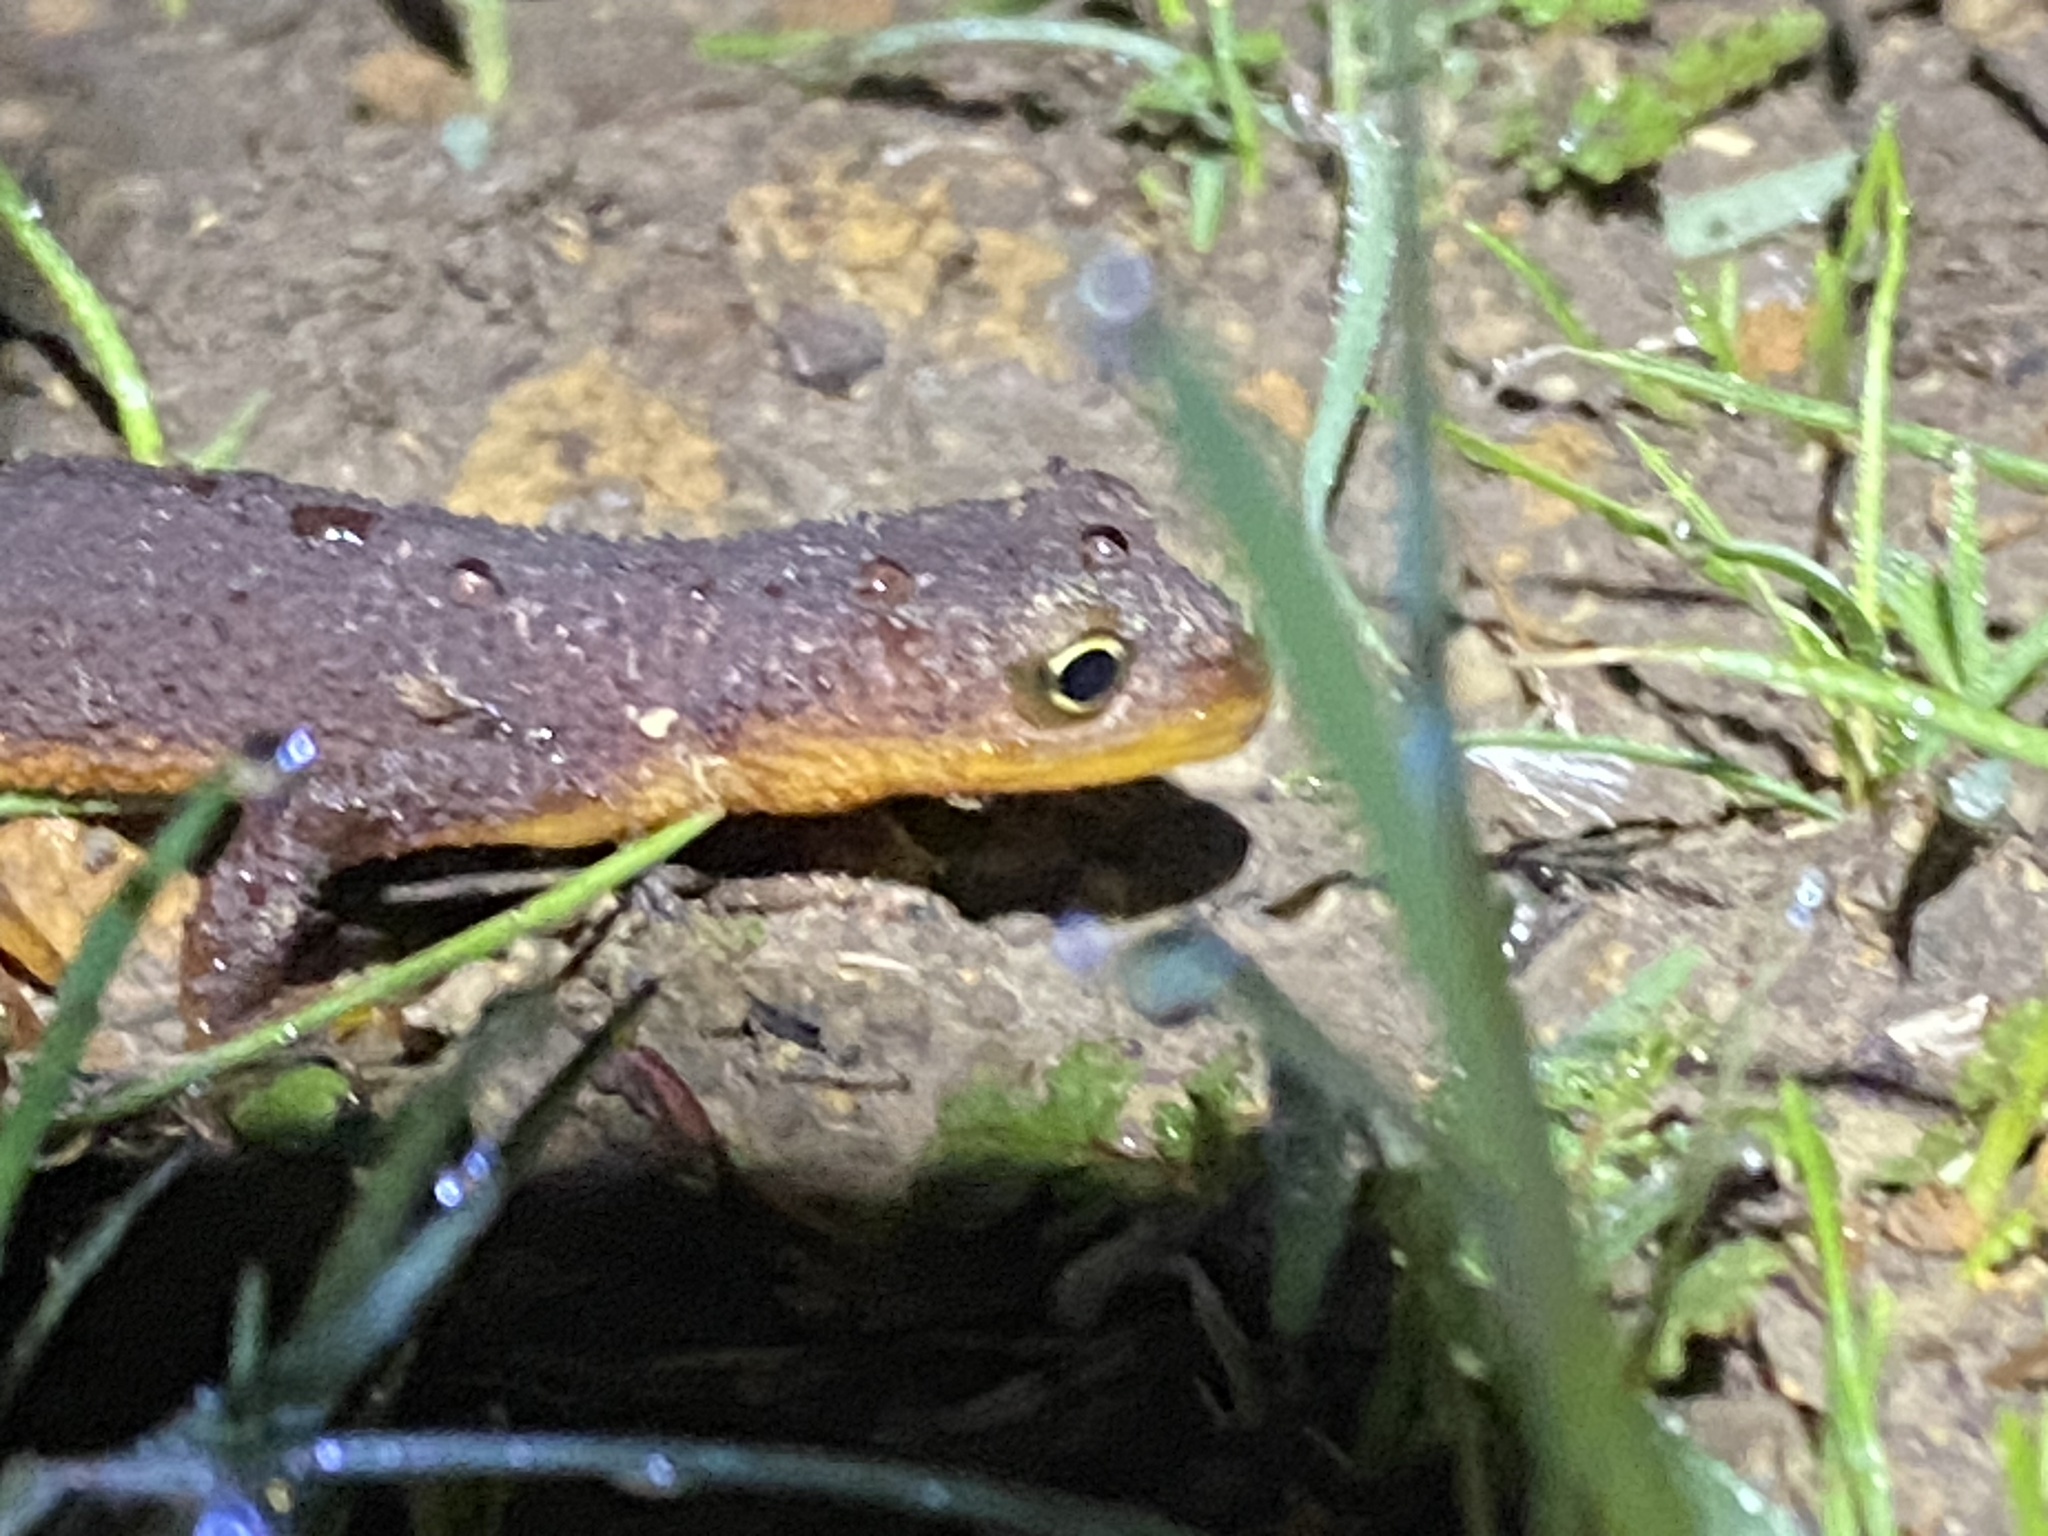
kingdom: Animalia
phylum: Chordata
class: Amphibia
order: Caudata
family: Salamandridae
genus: Taricha
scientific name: Taricha granulosa
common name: Roughskin newt
